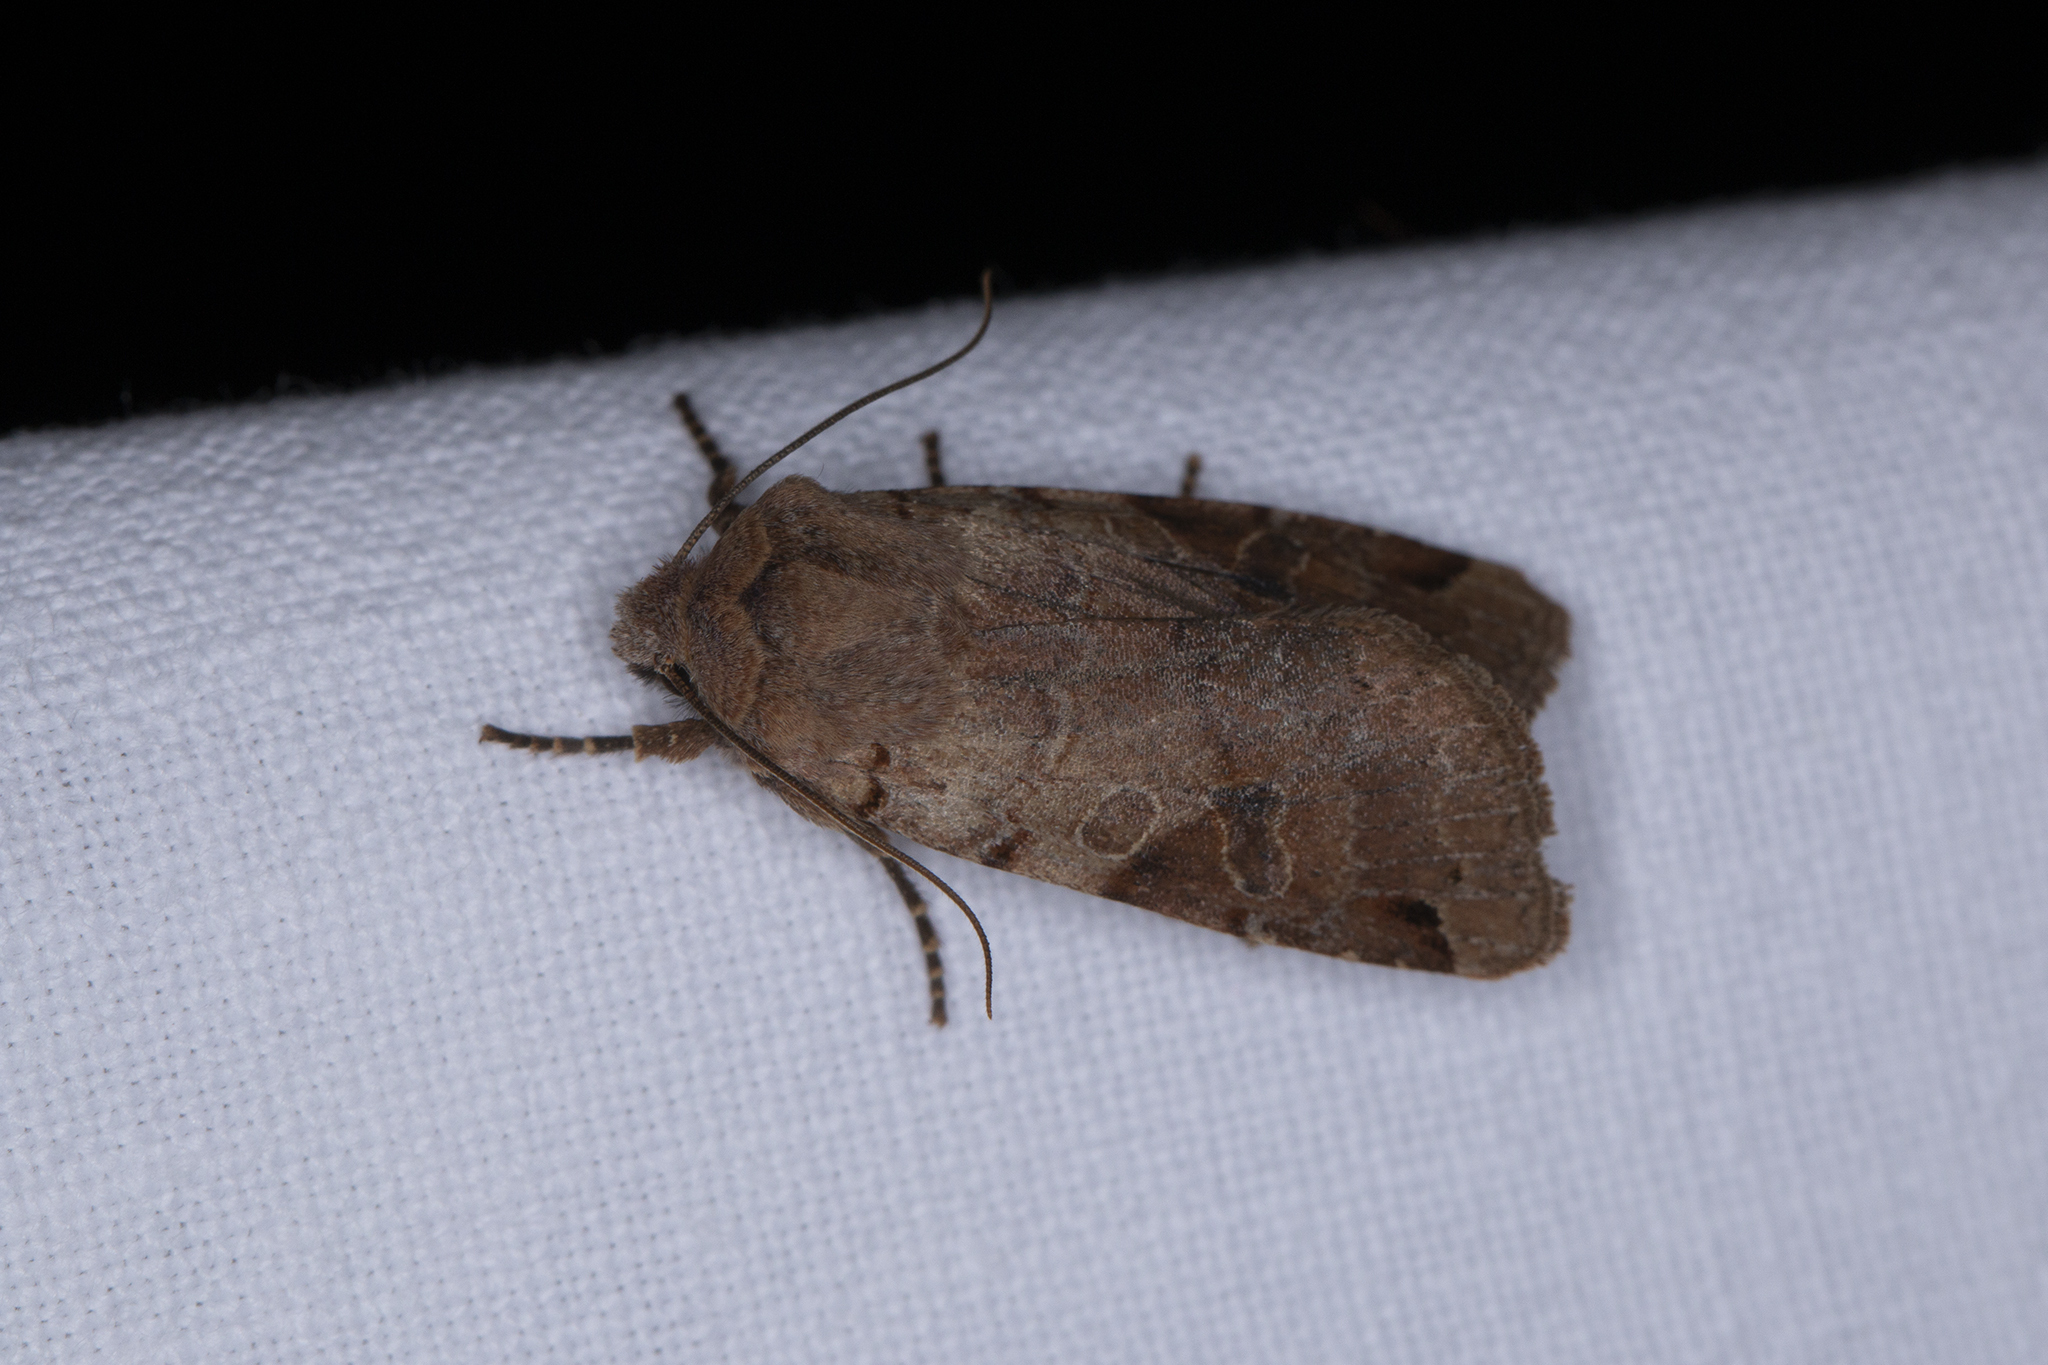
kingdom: Animalia
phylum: Arthropoda
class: Insecta
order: Lepidoptera
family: Noctuidae
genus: Agrochola
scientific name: Agrochola litura
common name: Brown-spot pinion
